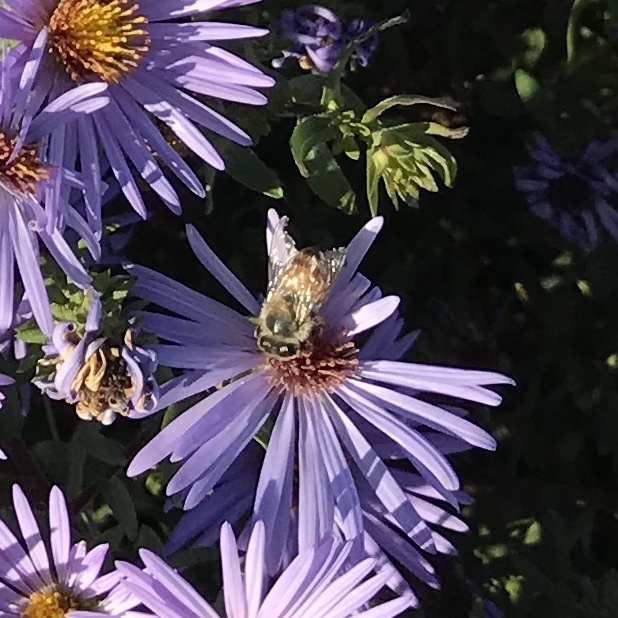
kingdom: Animalia
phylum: Arthropoda
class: Insecta
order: Hymenoptera
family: Apidae
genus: Apis
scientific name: Apis mellifera
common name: Honey bee
